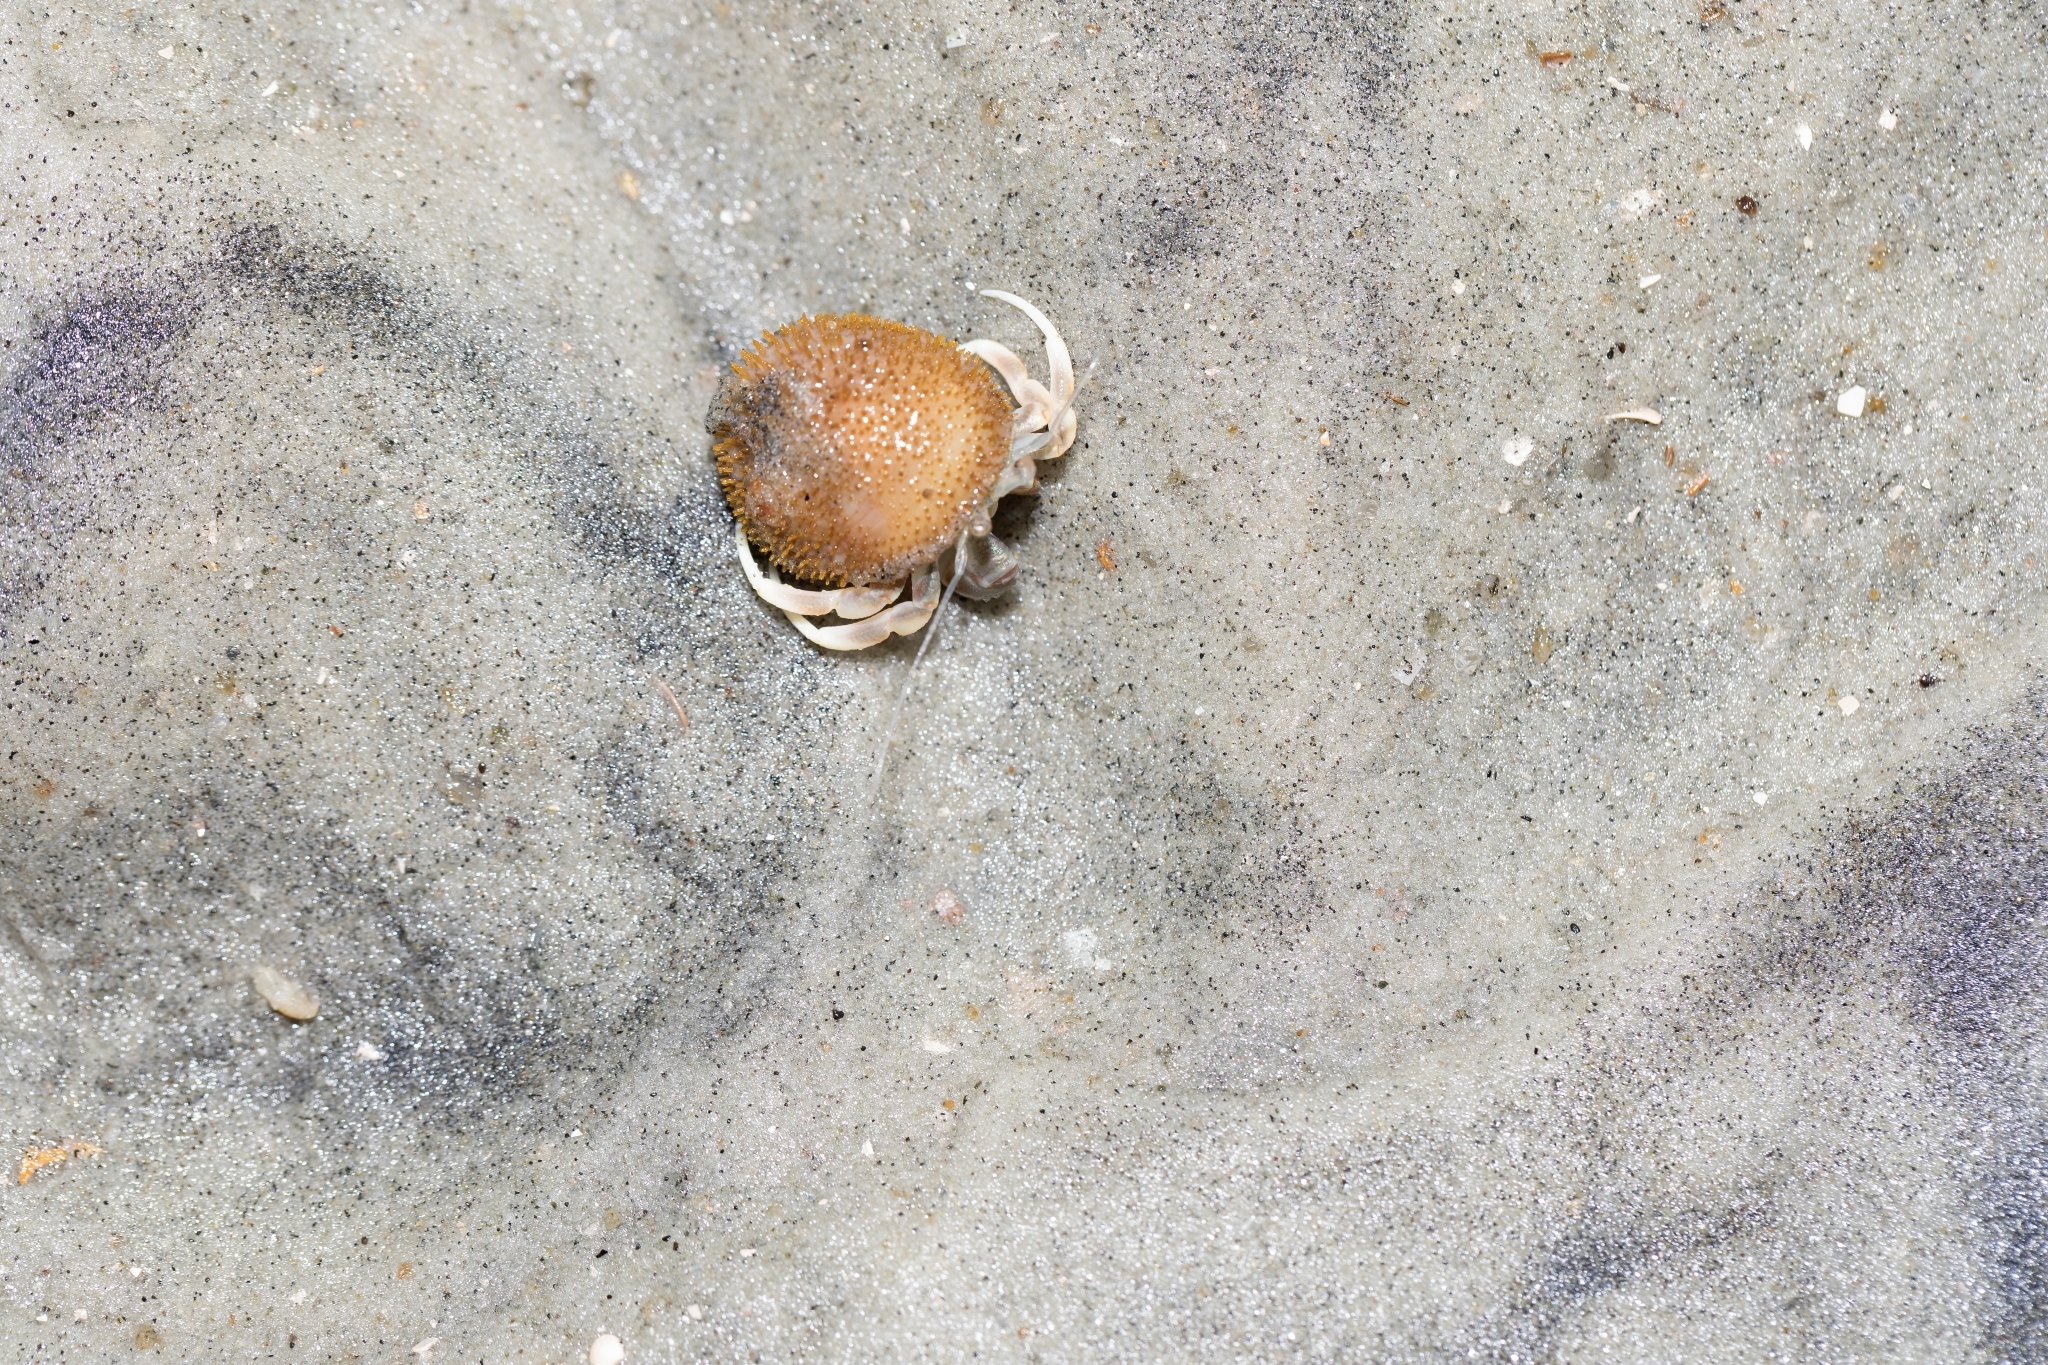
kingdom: Animalia
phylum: Arthropoda
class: Malacostraca
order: Decapoda
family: Paguridae
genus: Pagurus
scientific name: Pagurus longicarpus
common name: Long-armed hermit crab
